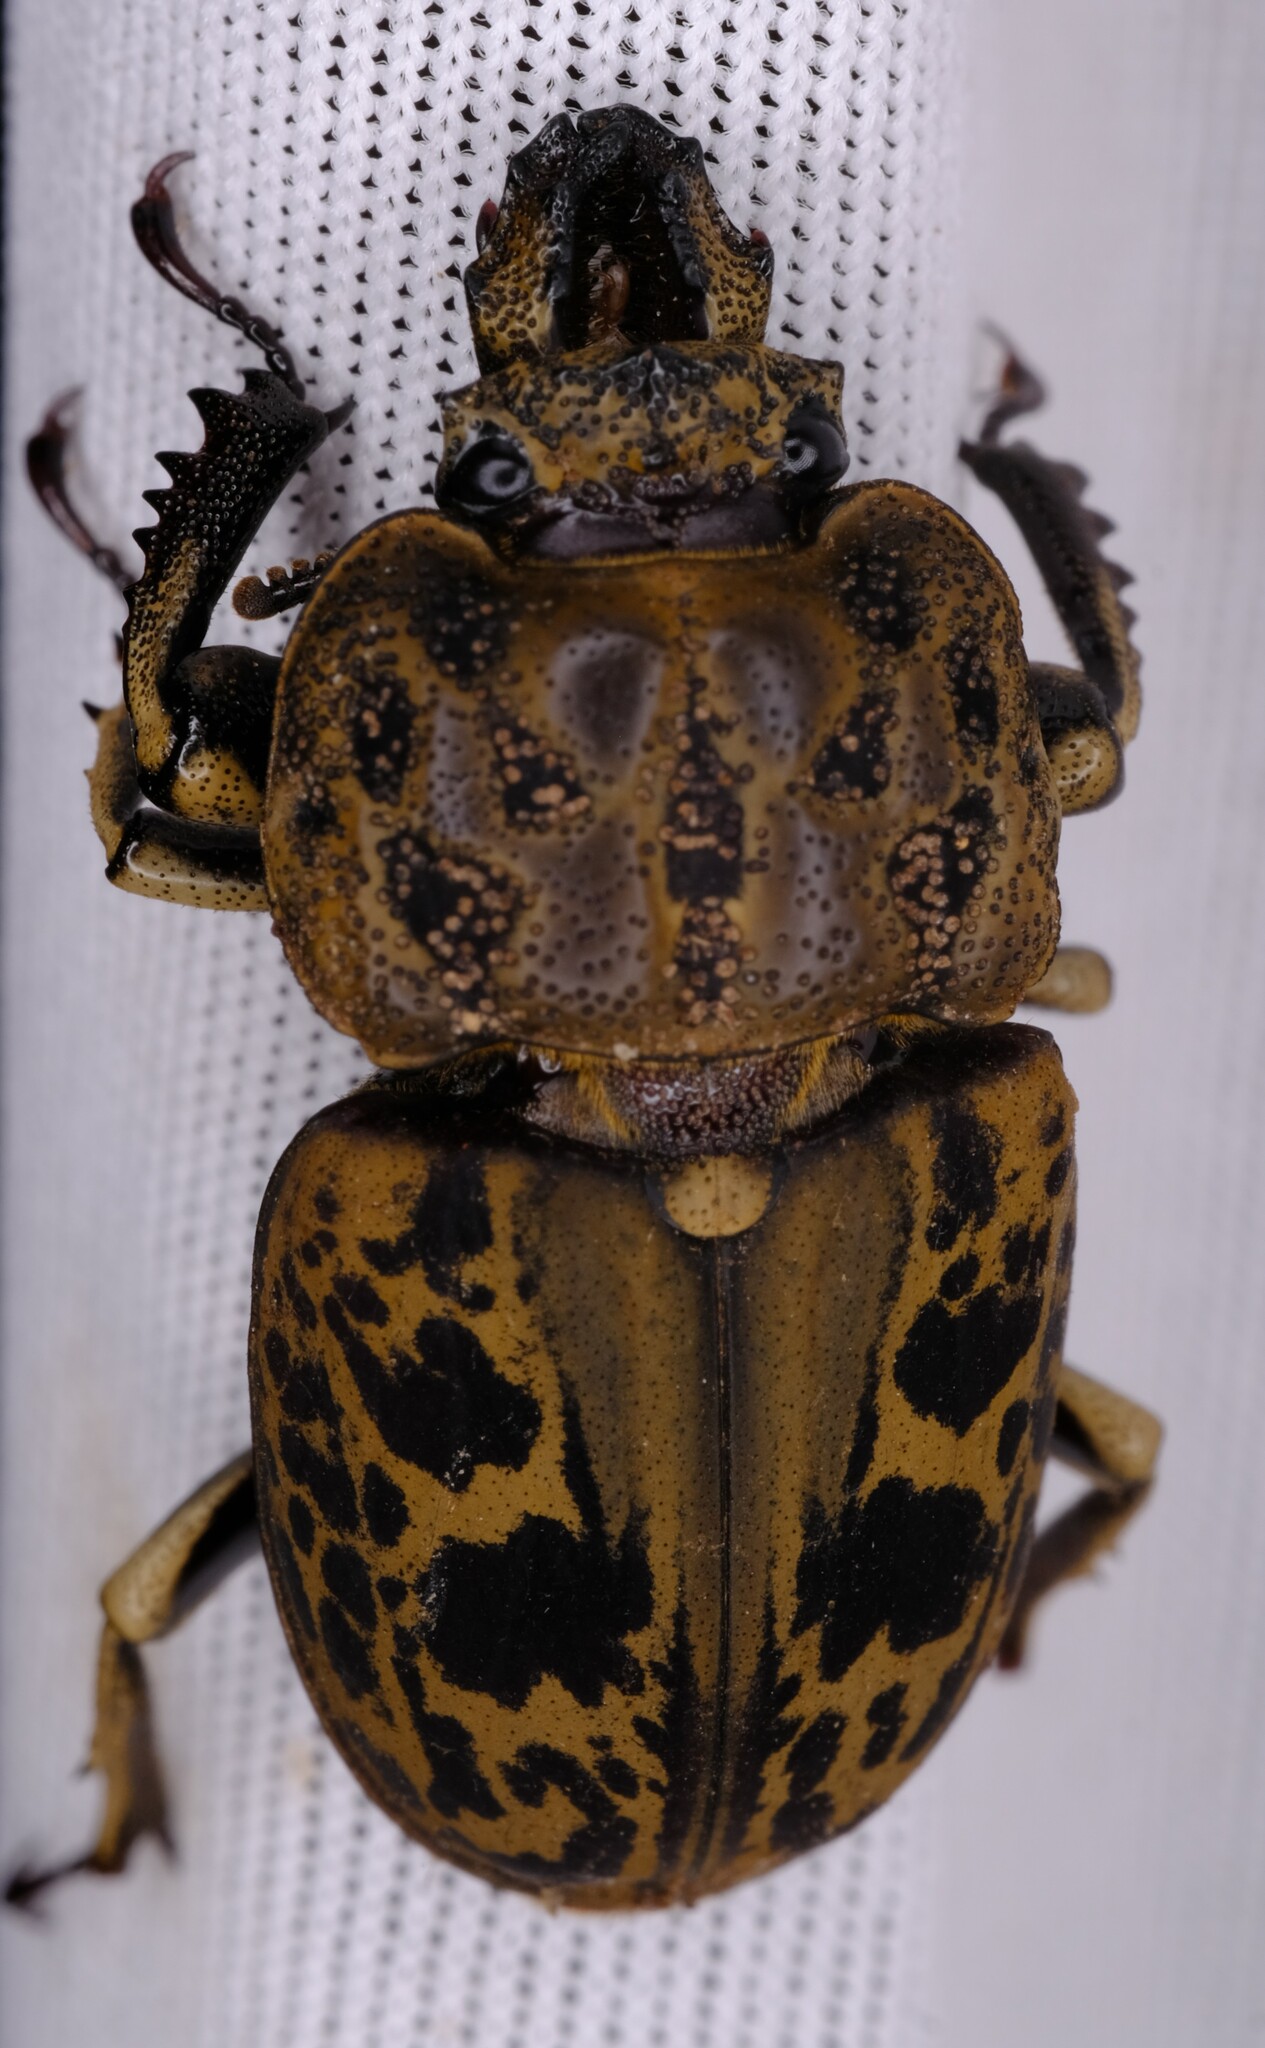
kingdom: Animalia
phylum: Arthropoda
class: Insecta
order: Coleoptera
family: Lucanidae
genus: Ryssonotus
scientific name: Ryssonotus nebulosus
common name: Brown stag beetle
